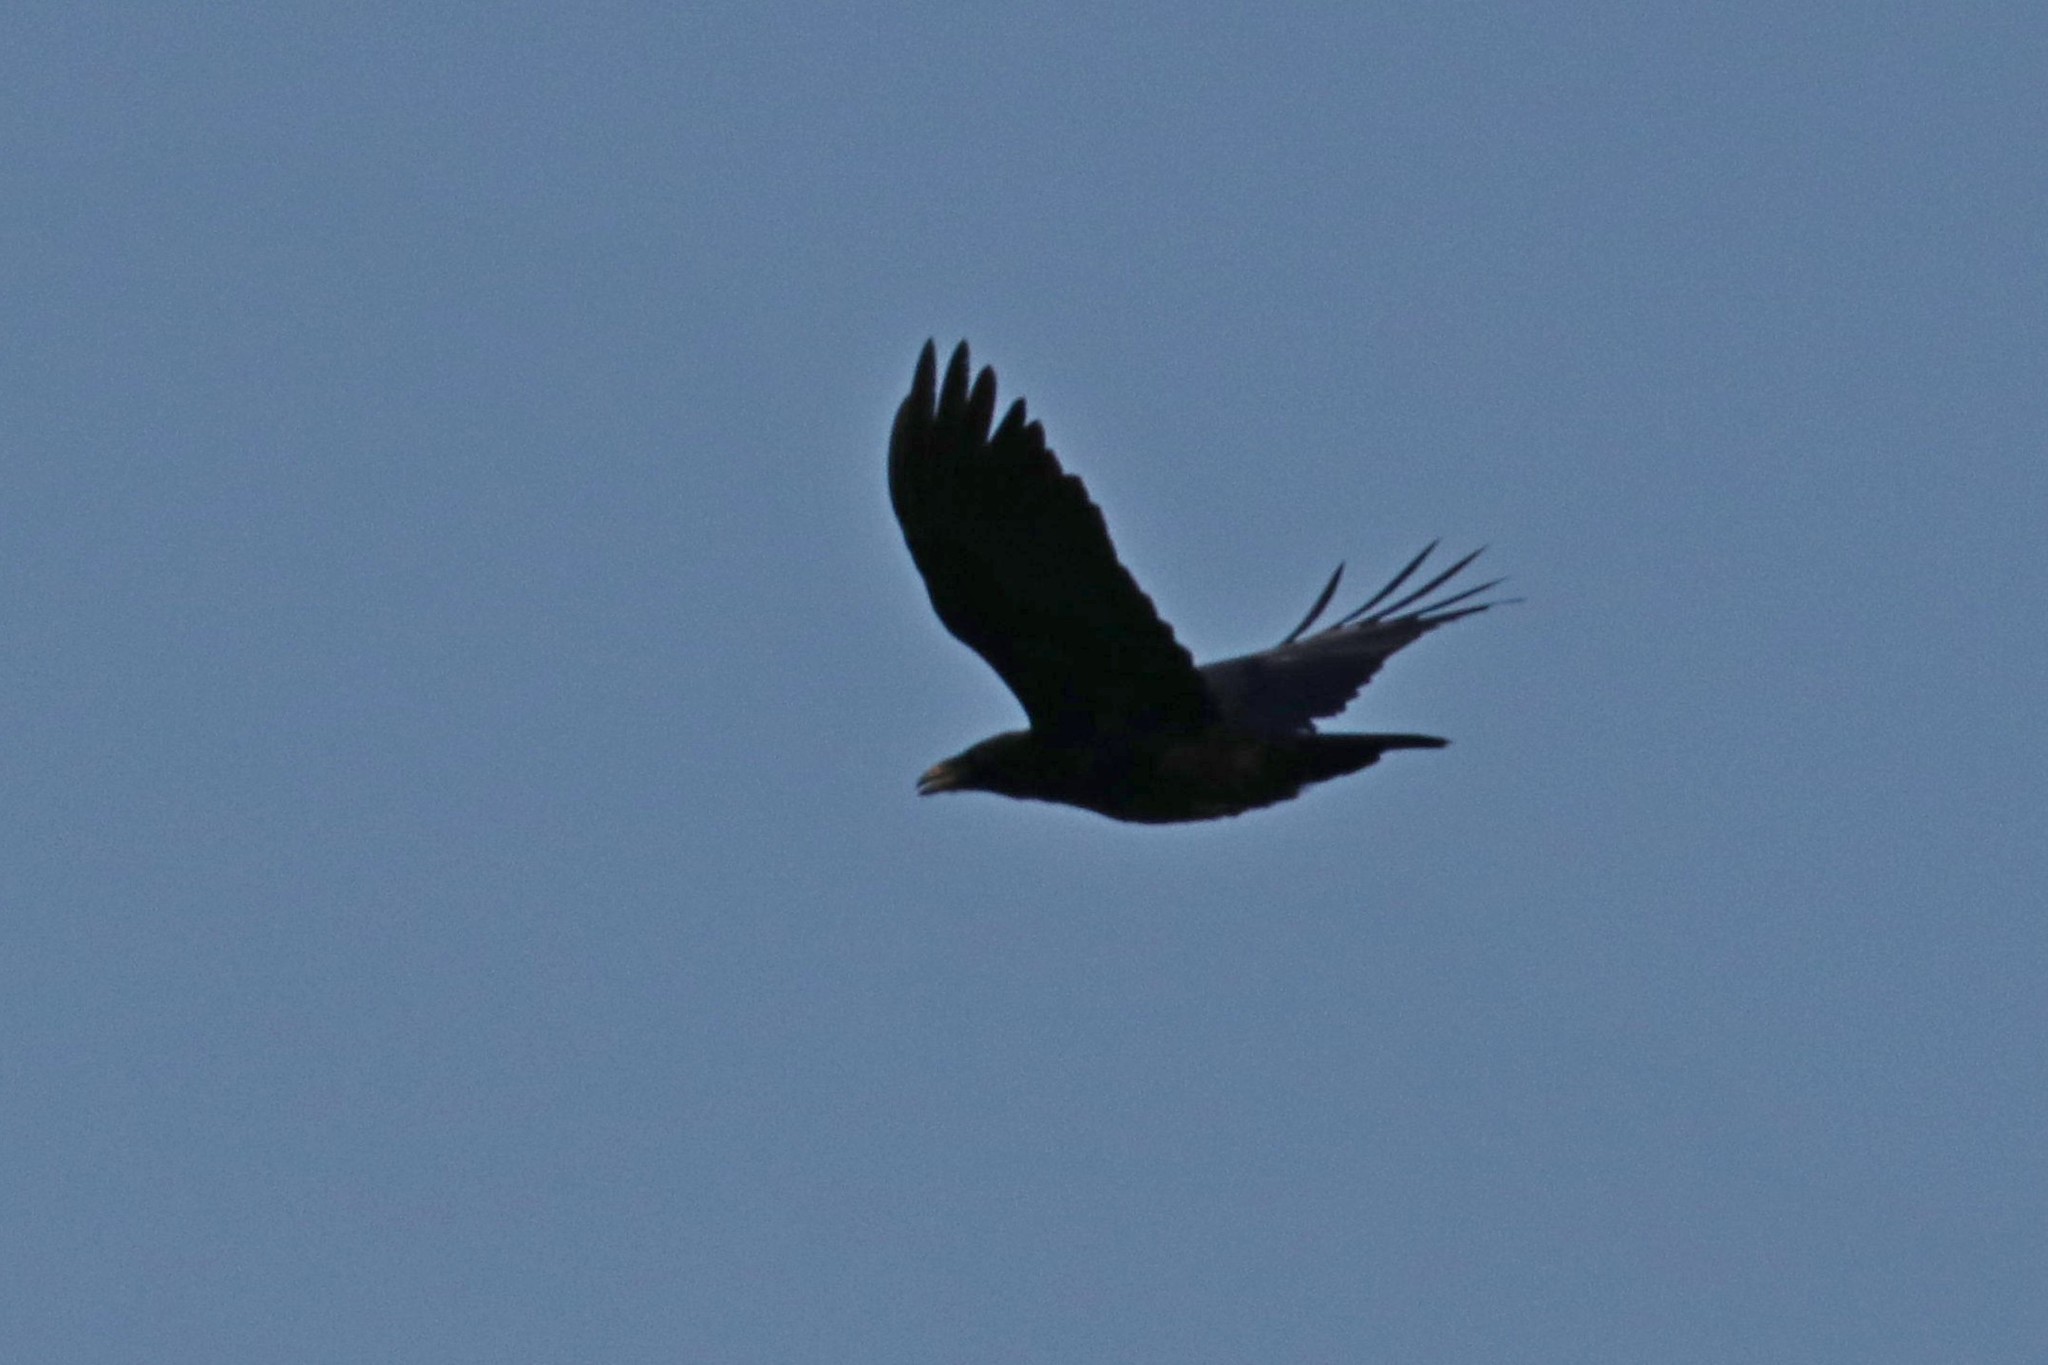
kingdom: Animalia
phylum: Chordata
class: Aves
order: Passeriformes
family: Corvidae
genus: Corvus
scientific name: Corvus corax
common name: Common raven
